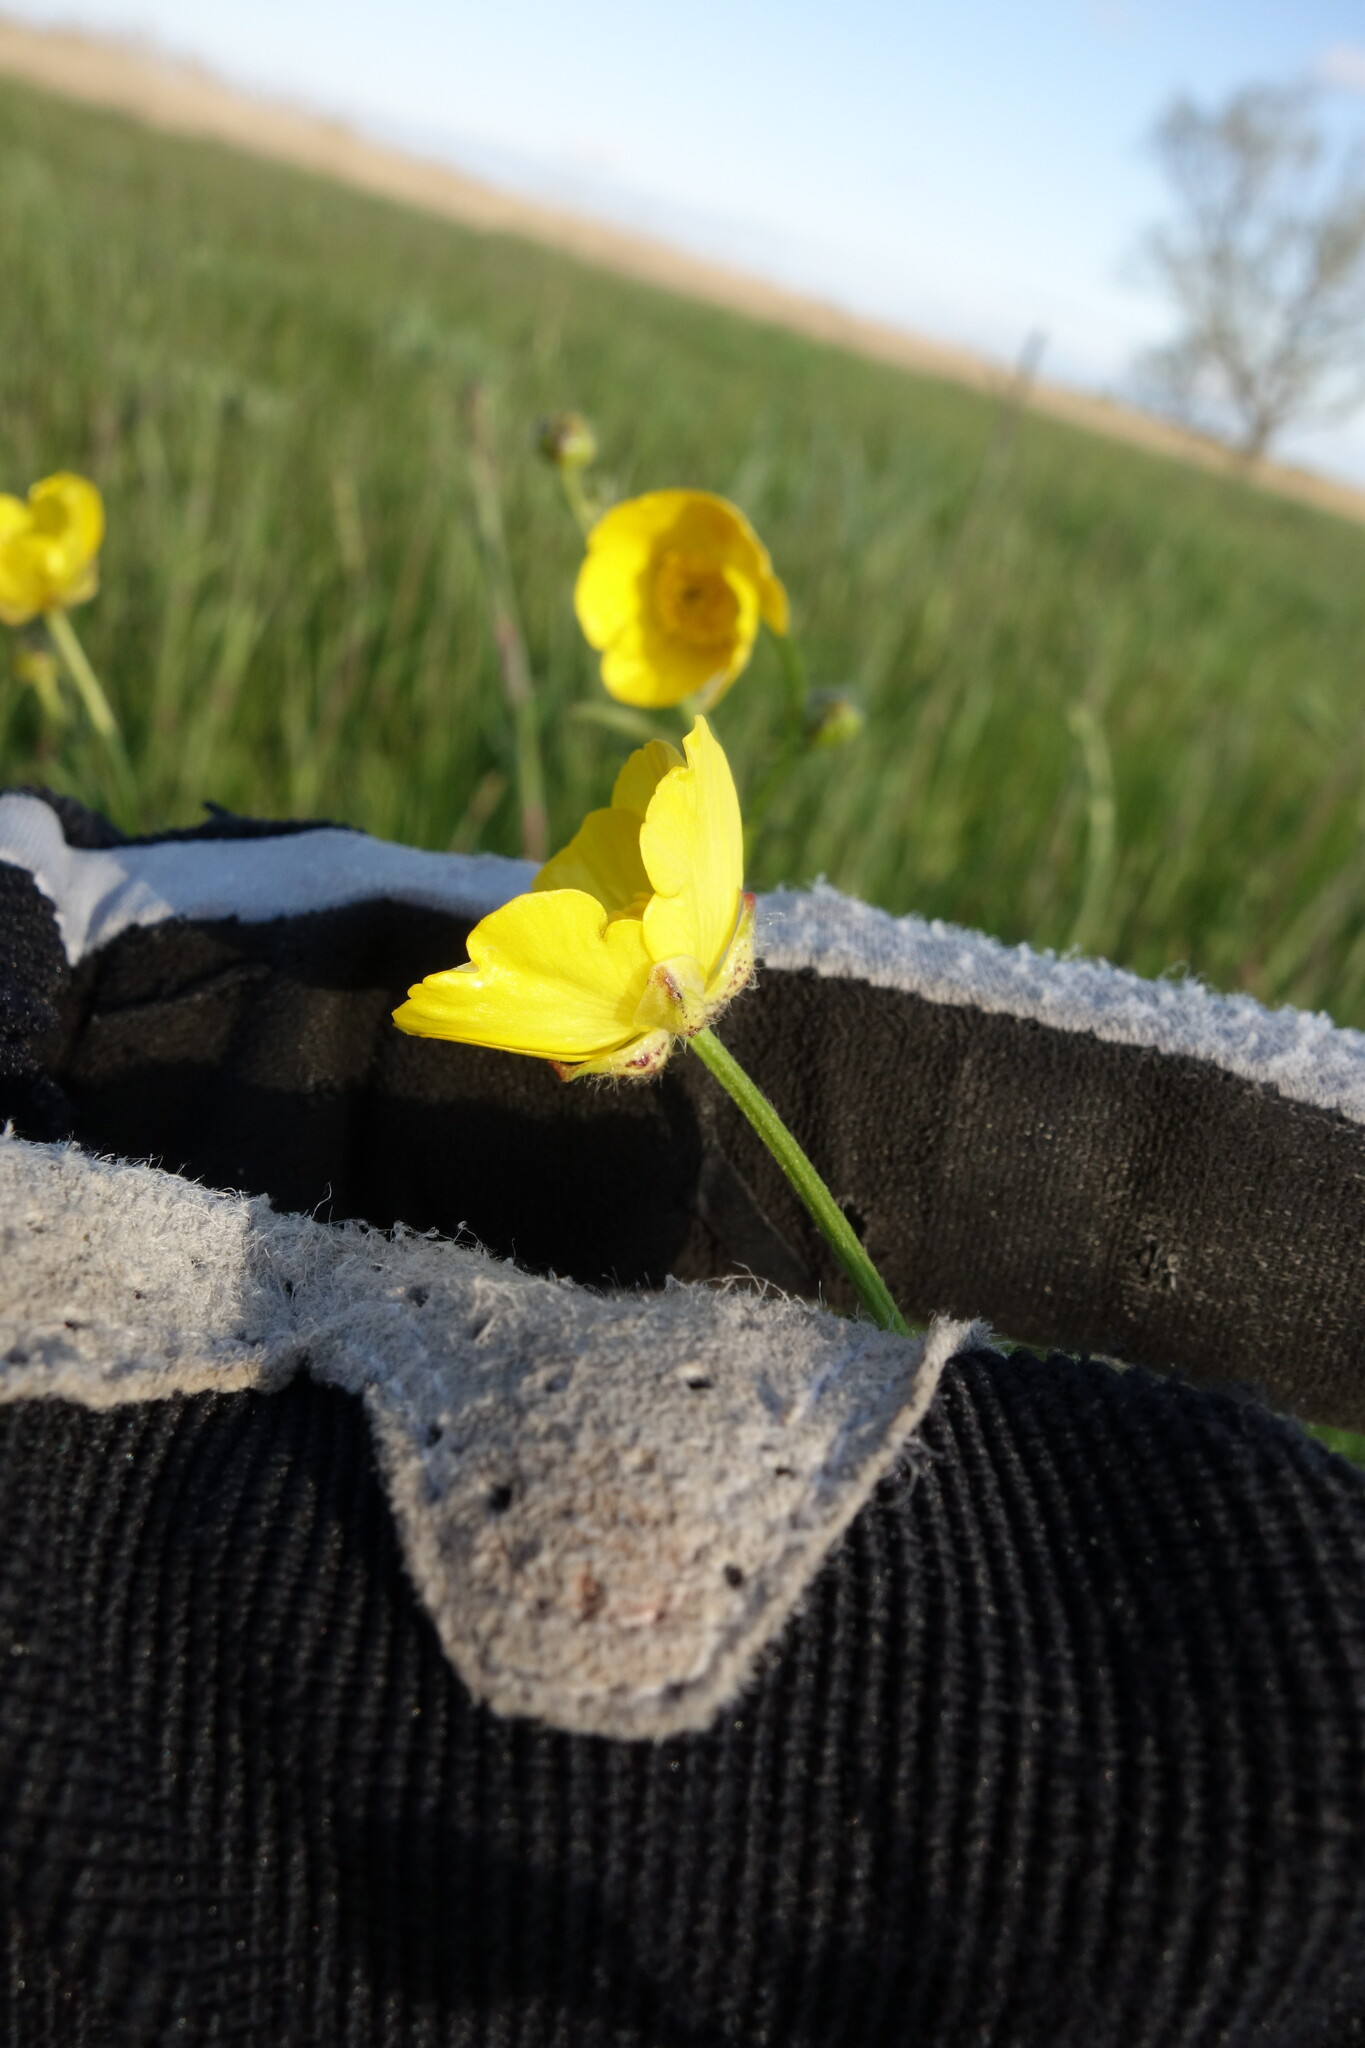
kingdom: Plantae
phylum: Tracheophyta
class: Magnoliopsida
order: Ranunculales
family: Ranunculaceae
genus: Ranunculus
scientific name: Ranunculus polyanthemos
